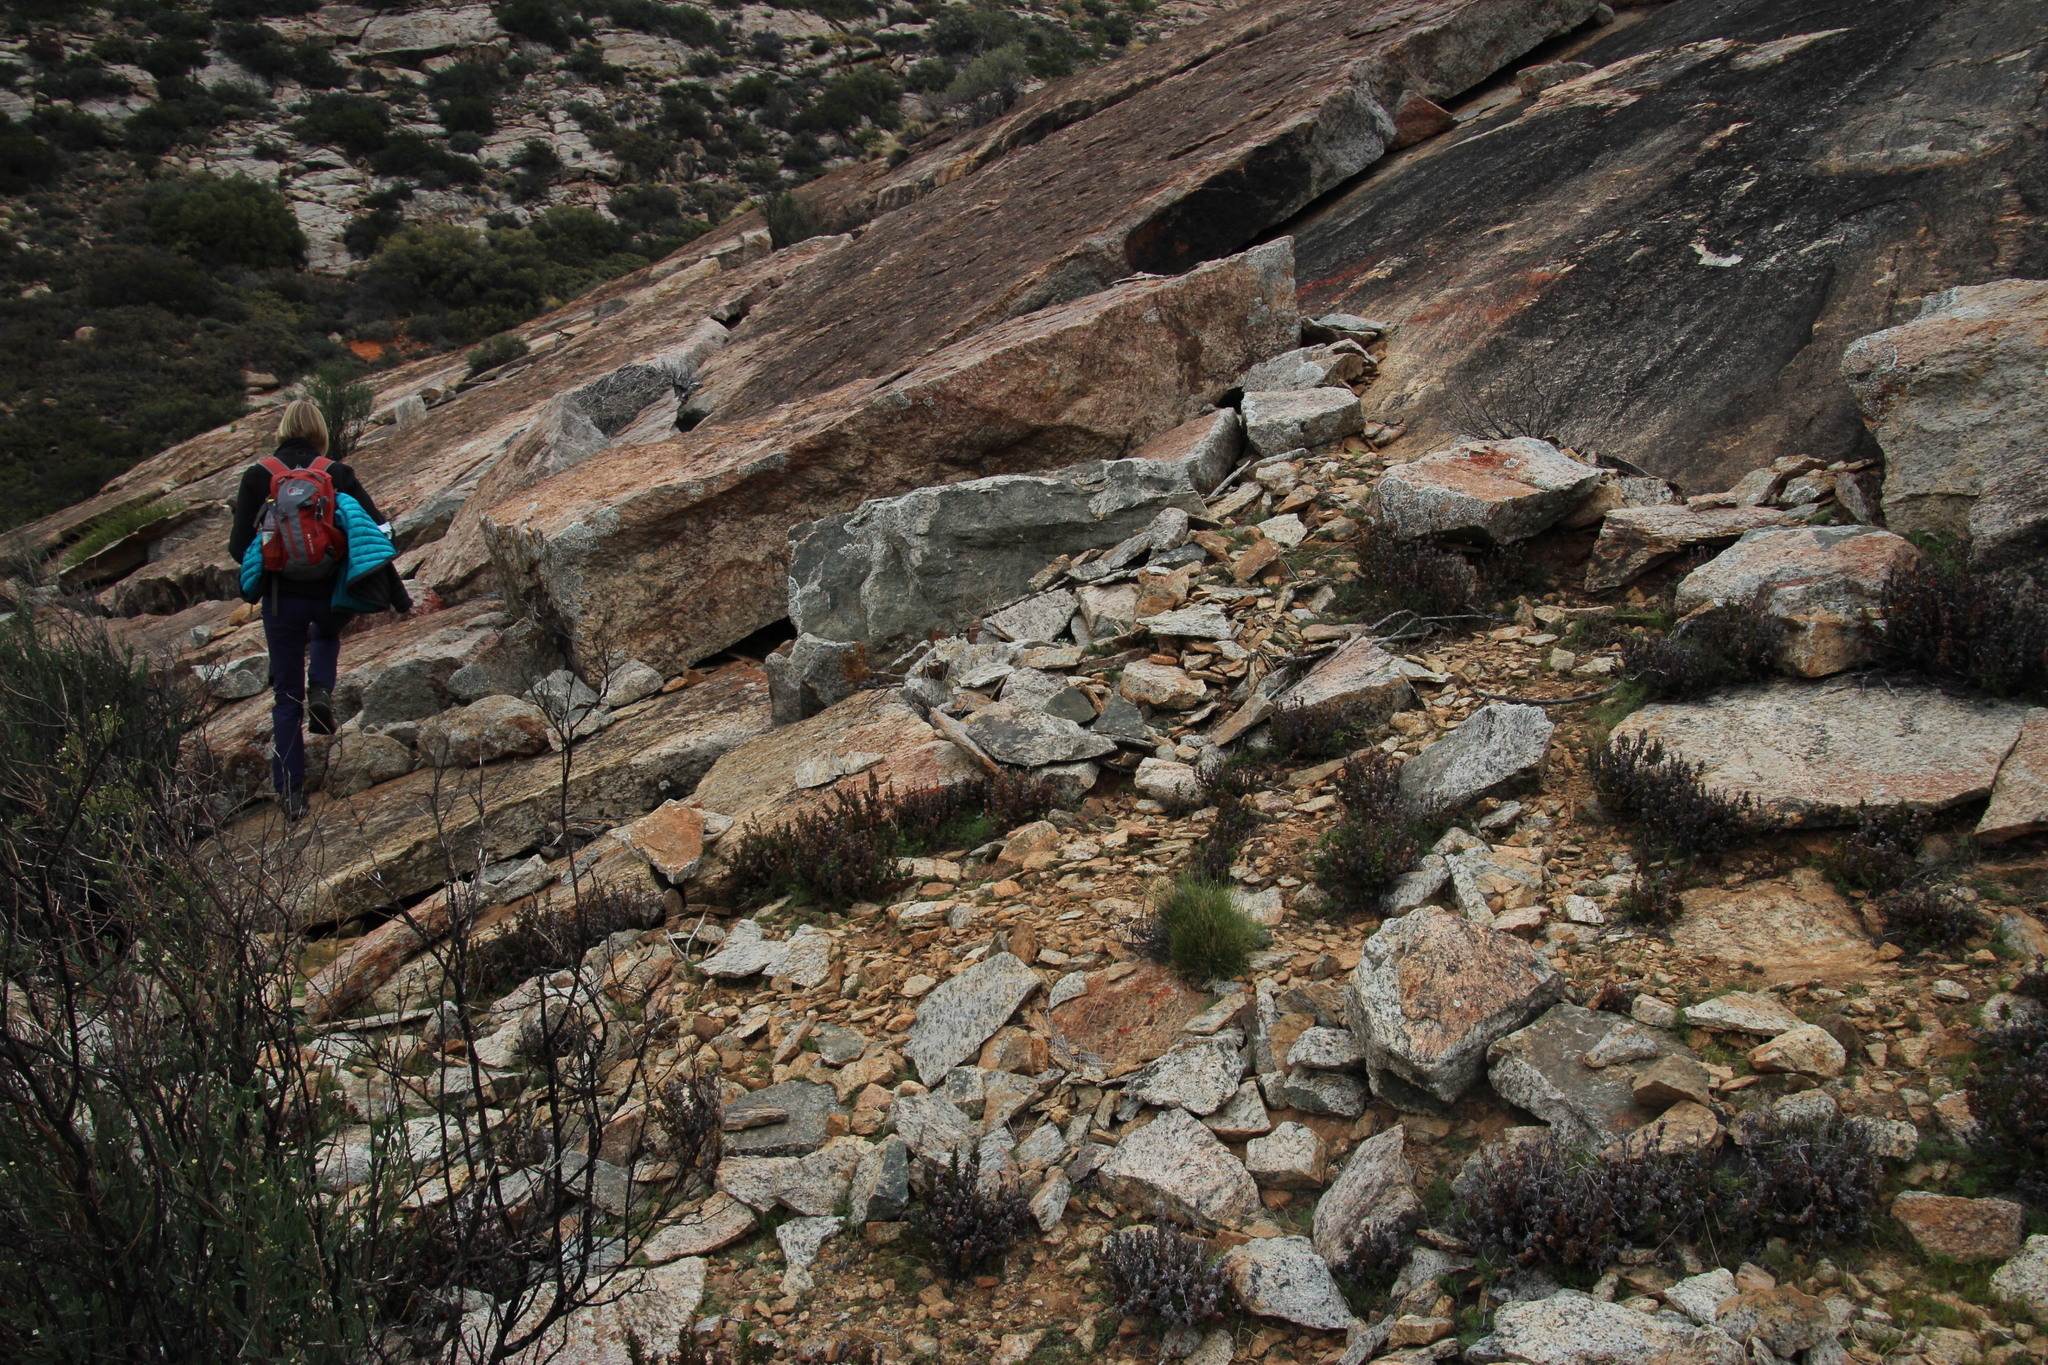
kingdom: Plantae
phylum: Tracheophyta
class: Polypodiopsida
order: Polypodiales
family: Pteridaceae
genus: Cheilanthes
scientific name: Cheilanthes multifida
